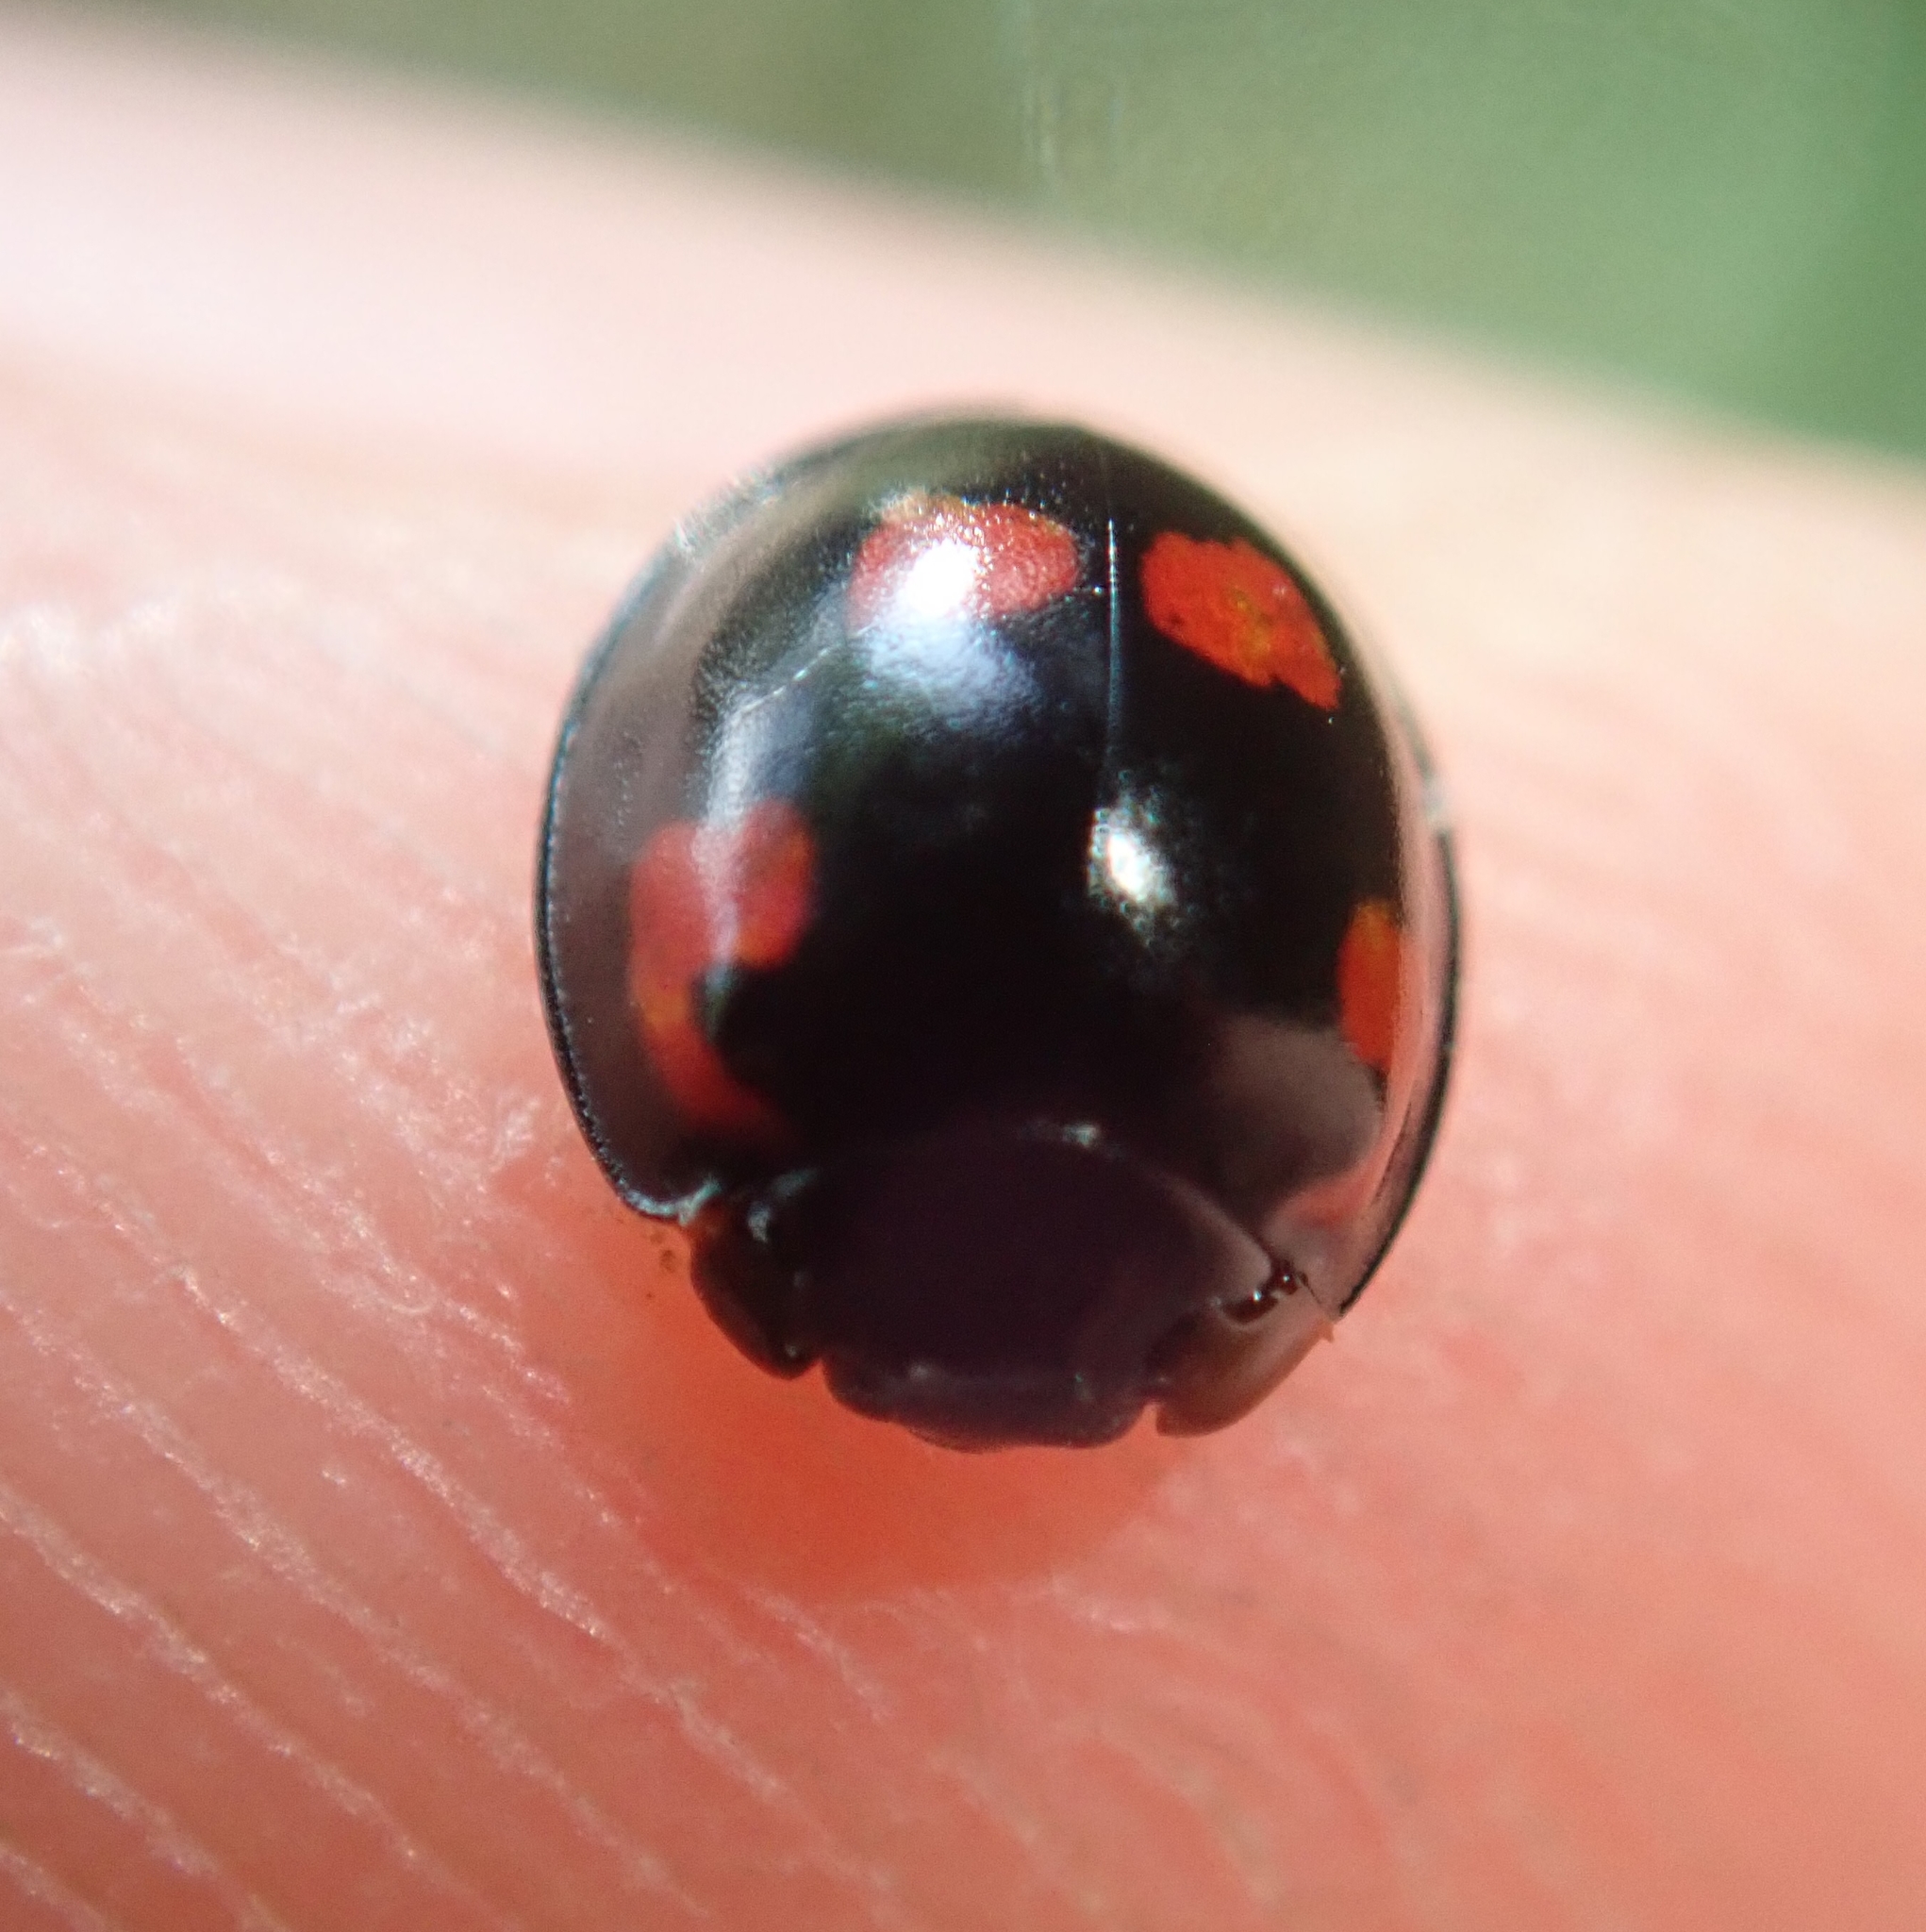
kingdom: Animalia
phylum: Arthropoda
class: Insecta
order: Coleoptera
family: Coccinellidae
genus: Brumus
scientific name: Brumus quadripustulatus
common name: Ladybird beetle
